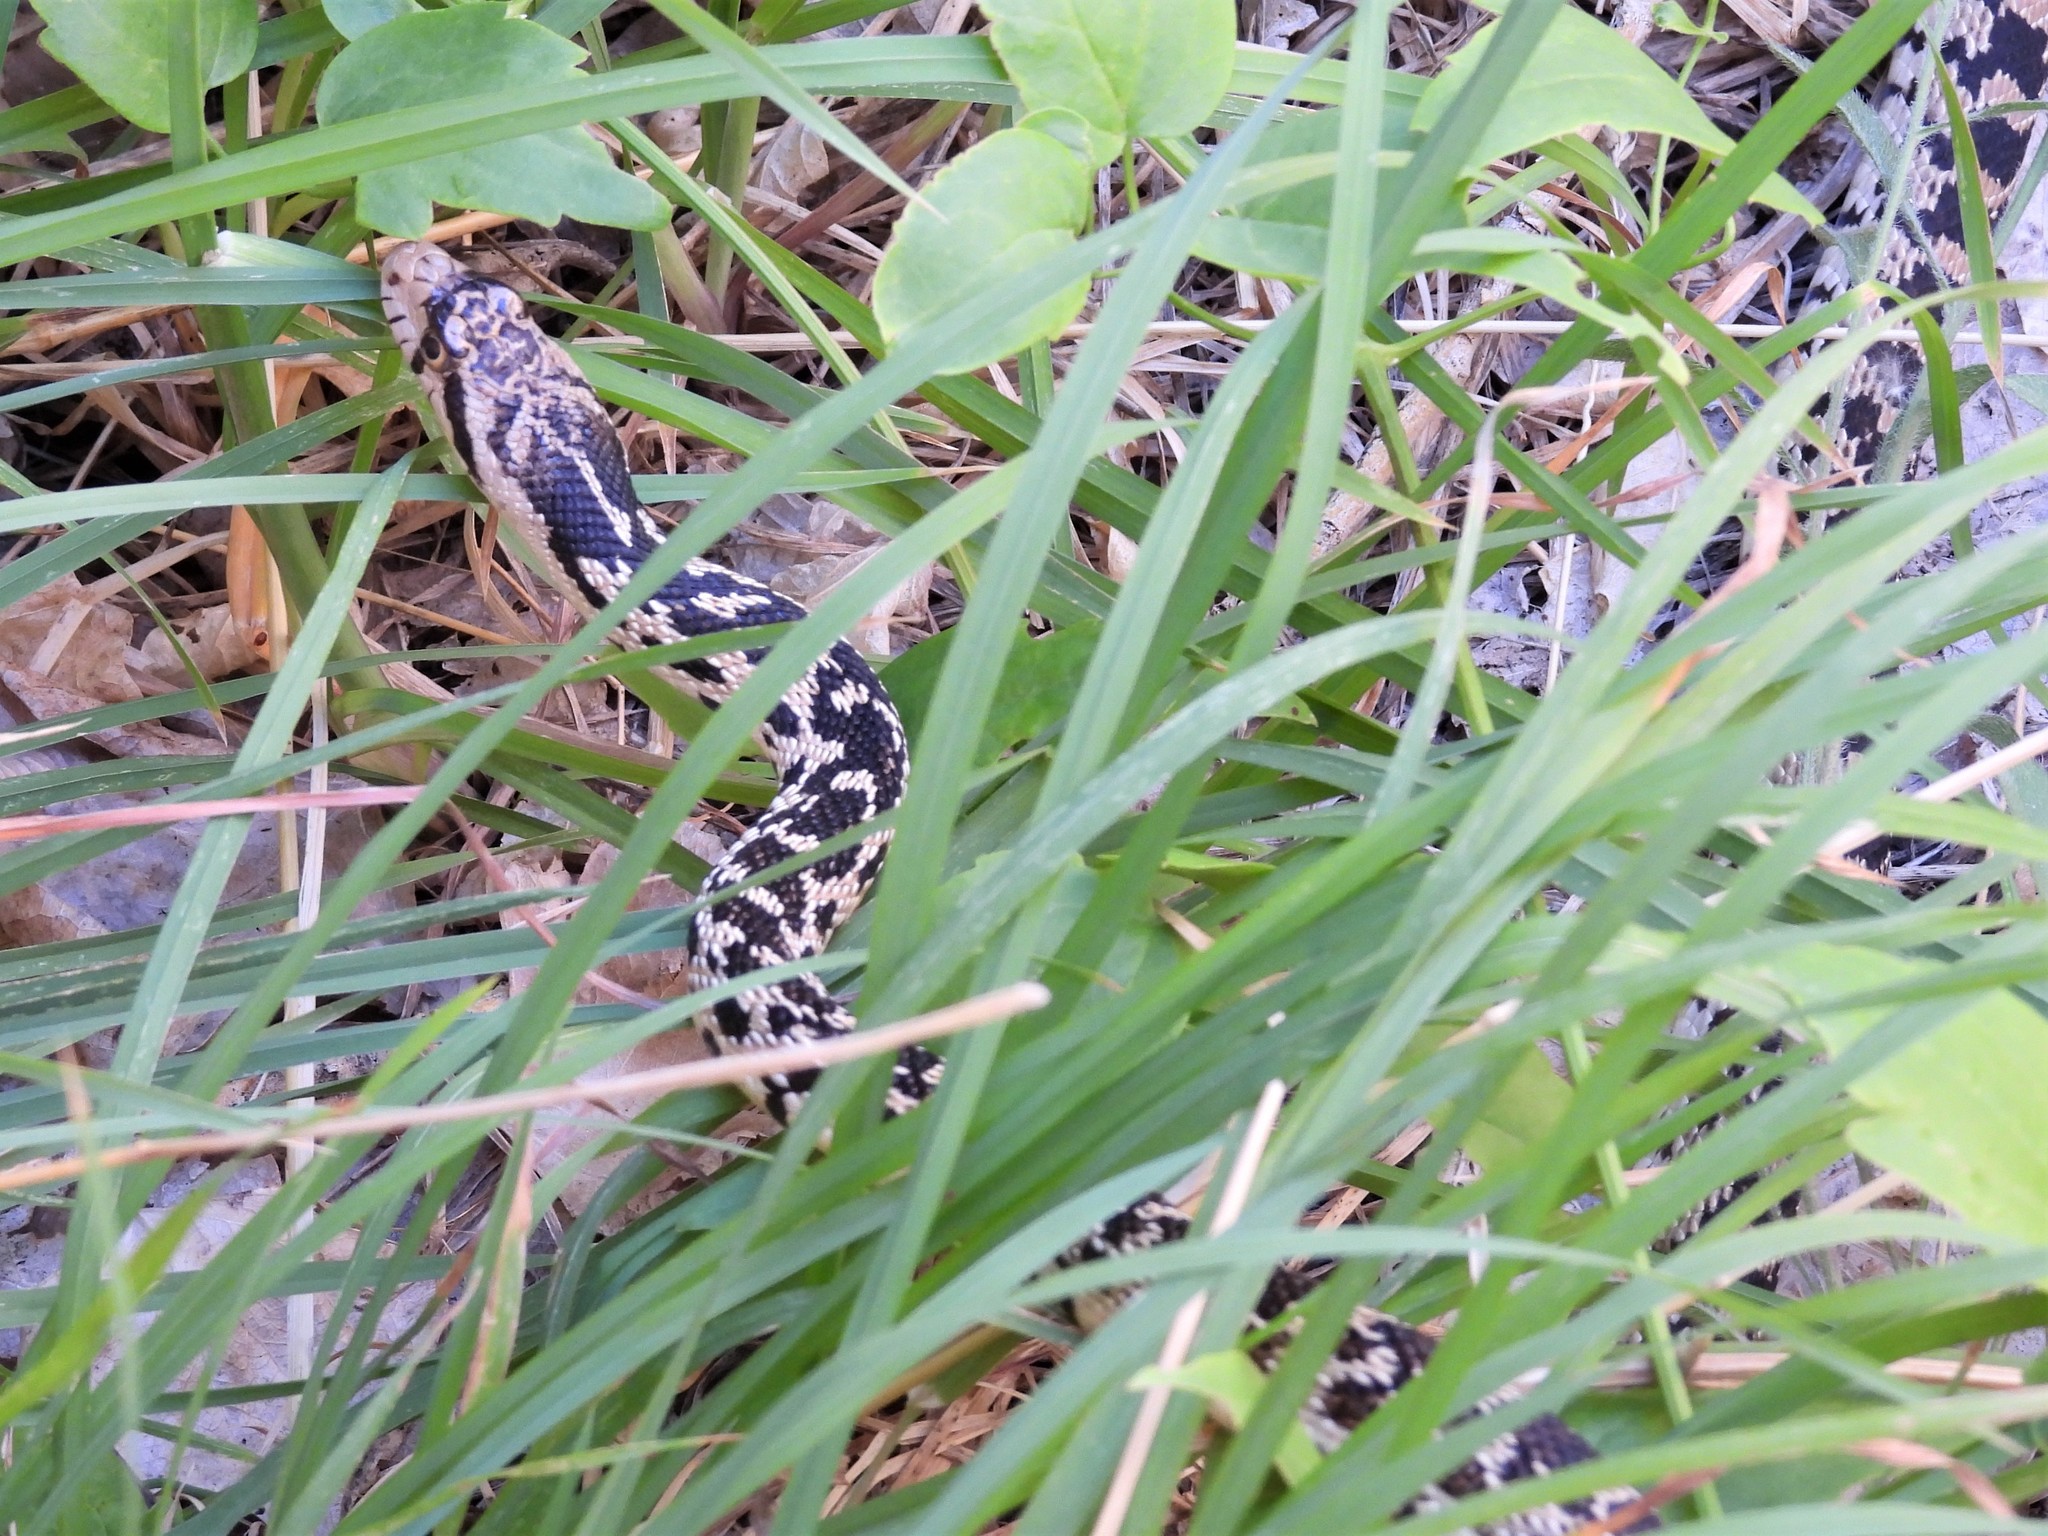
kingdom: Animalia
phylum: Chordata
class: Squamata
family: Colubridae
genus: Pituophis
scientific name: Pituophis catenifer
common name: Gopher snake
